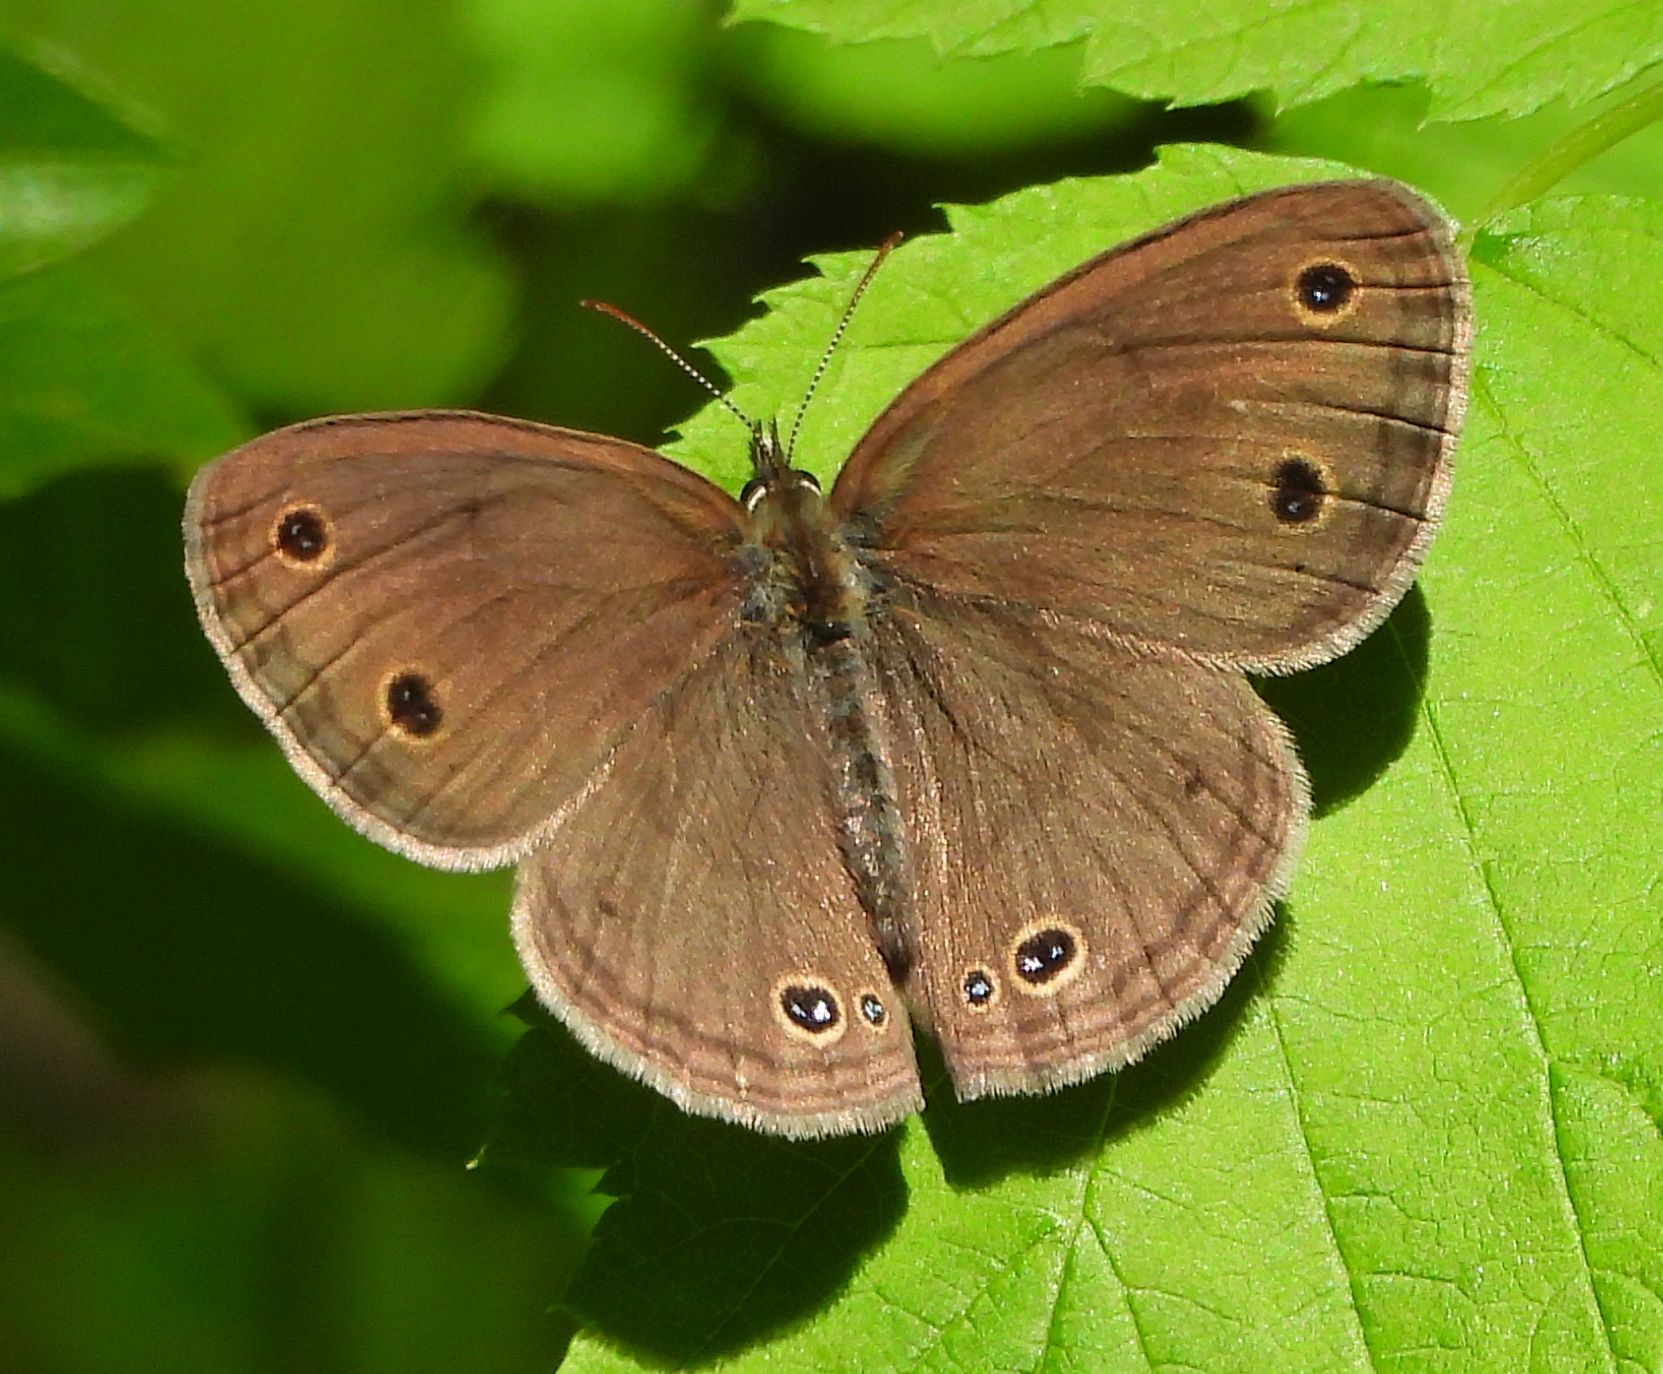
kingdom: Animalia
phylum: Arthropoda
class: Insecta
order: Lepidoptera
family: Nymphalidae
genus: Euptychia
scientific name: Euptychia cymela
